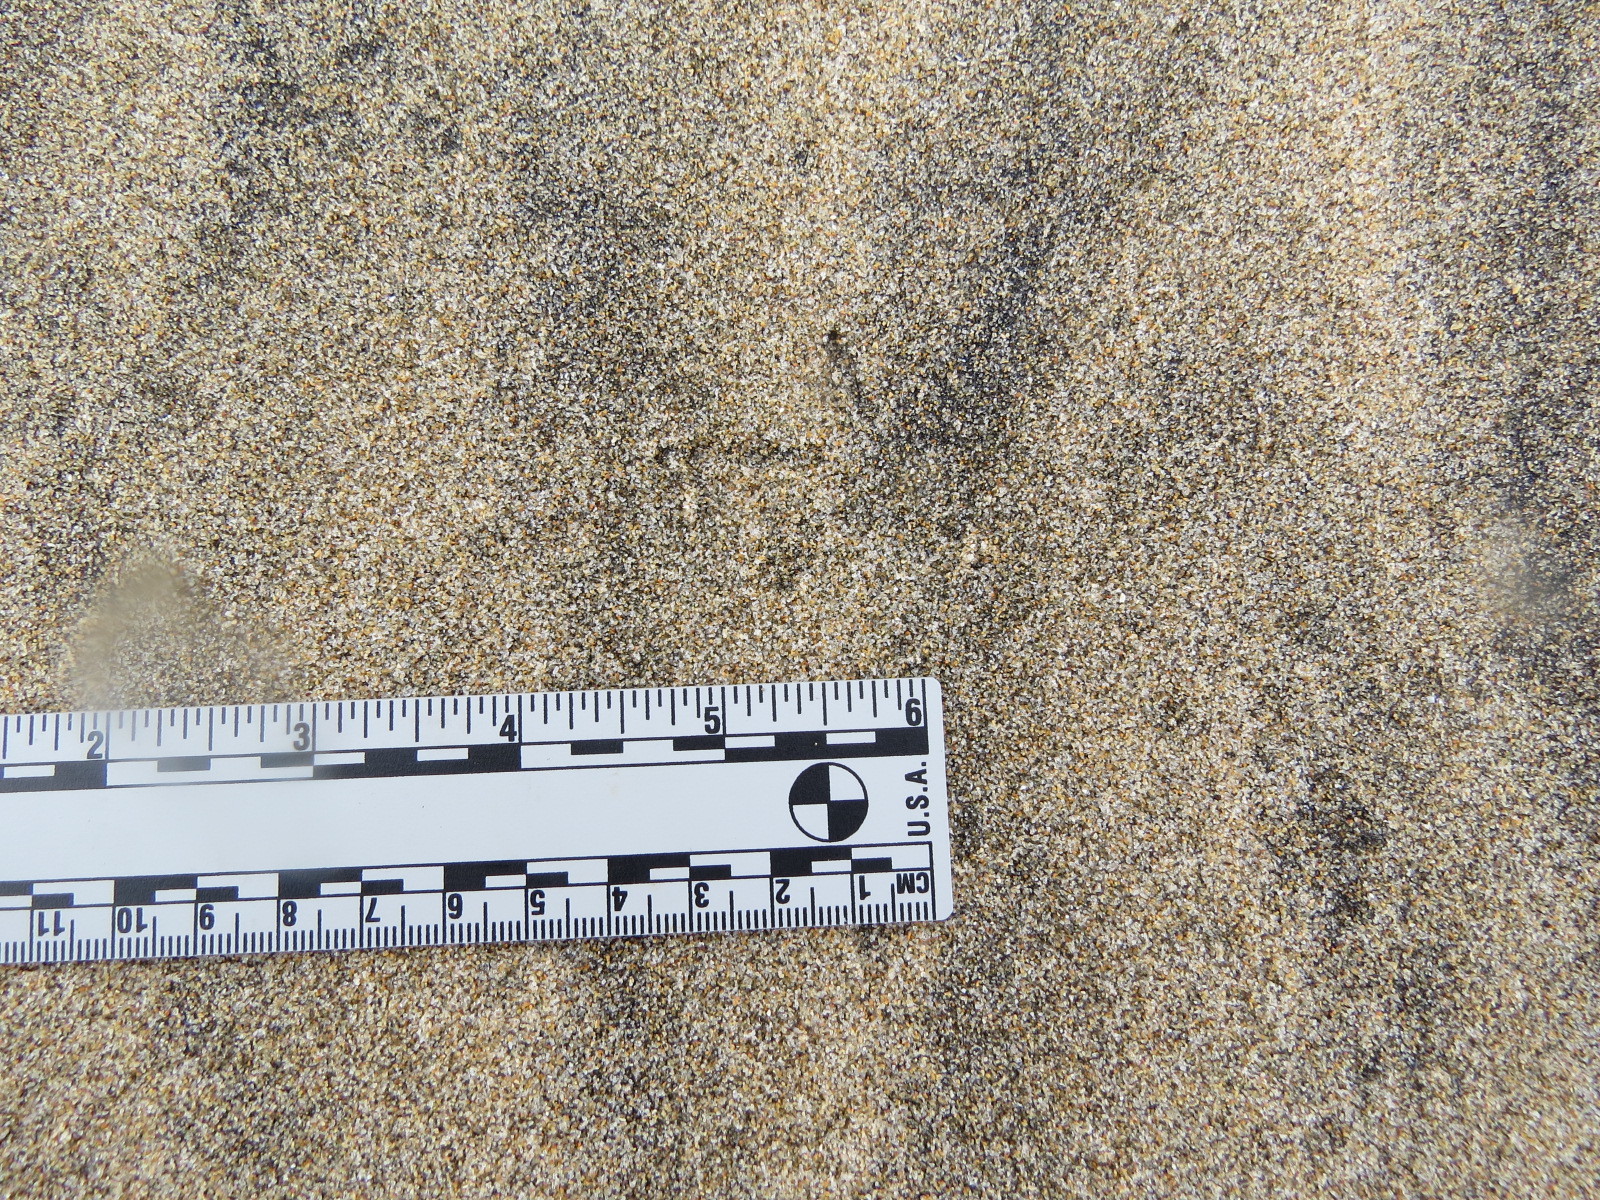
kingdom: Animalia
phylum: Chordata
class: Aves
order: Charadriiformes
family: Charadriidae
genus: Charadrius
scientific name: Charadrius vociferus
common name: Killdeer
